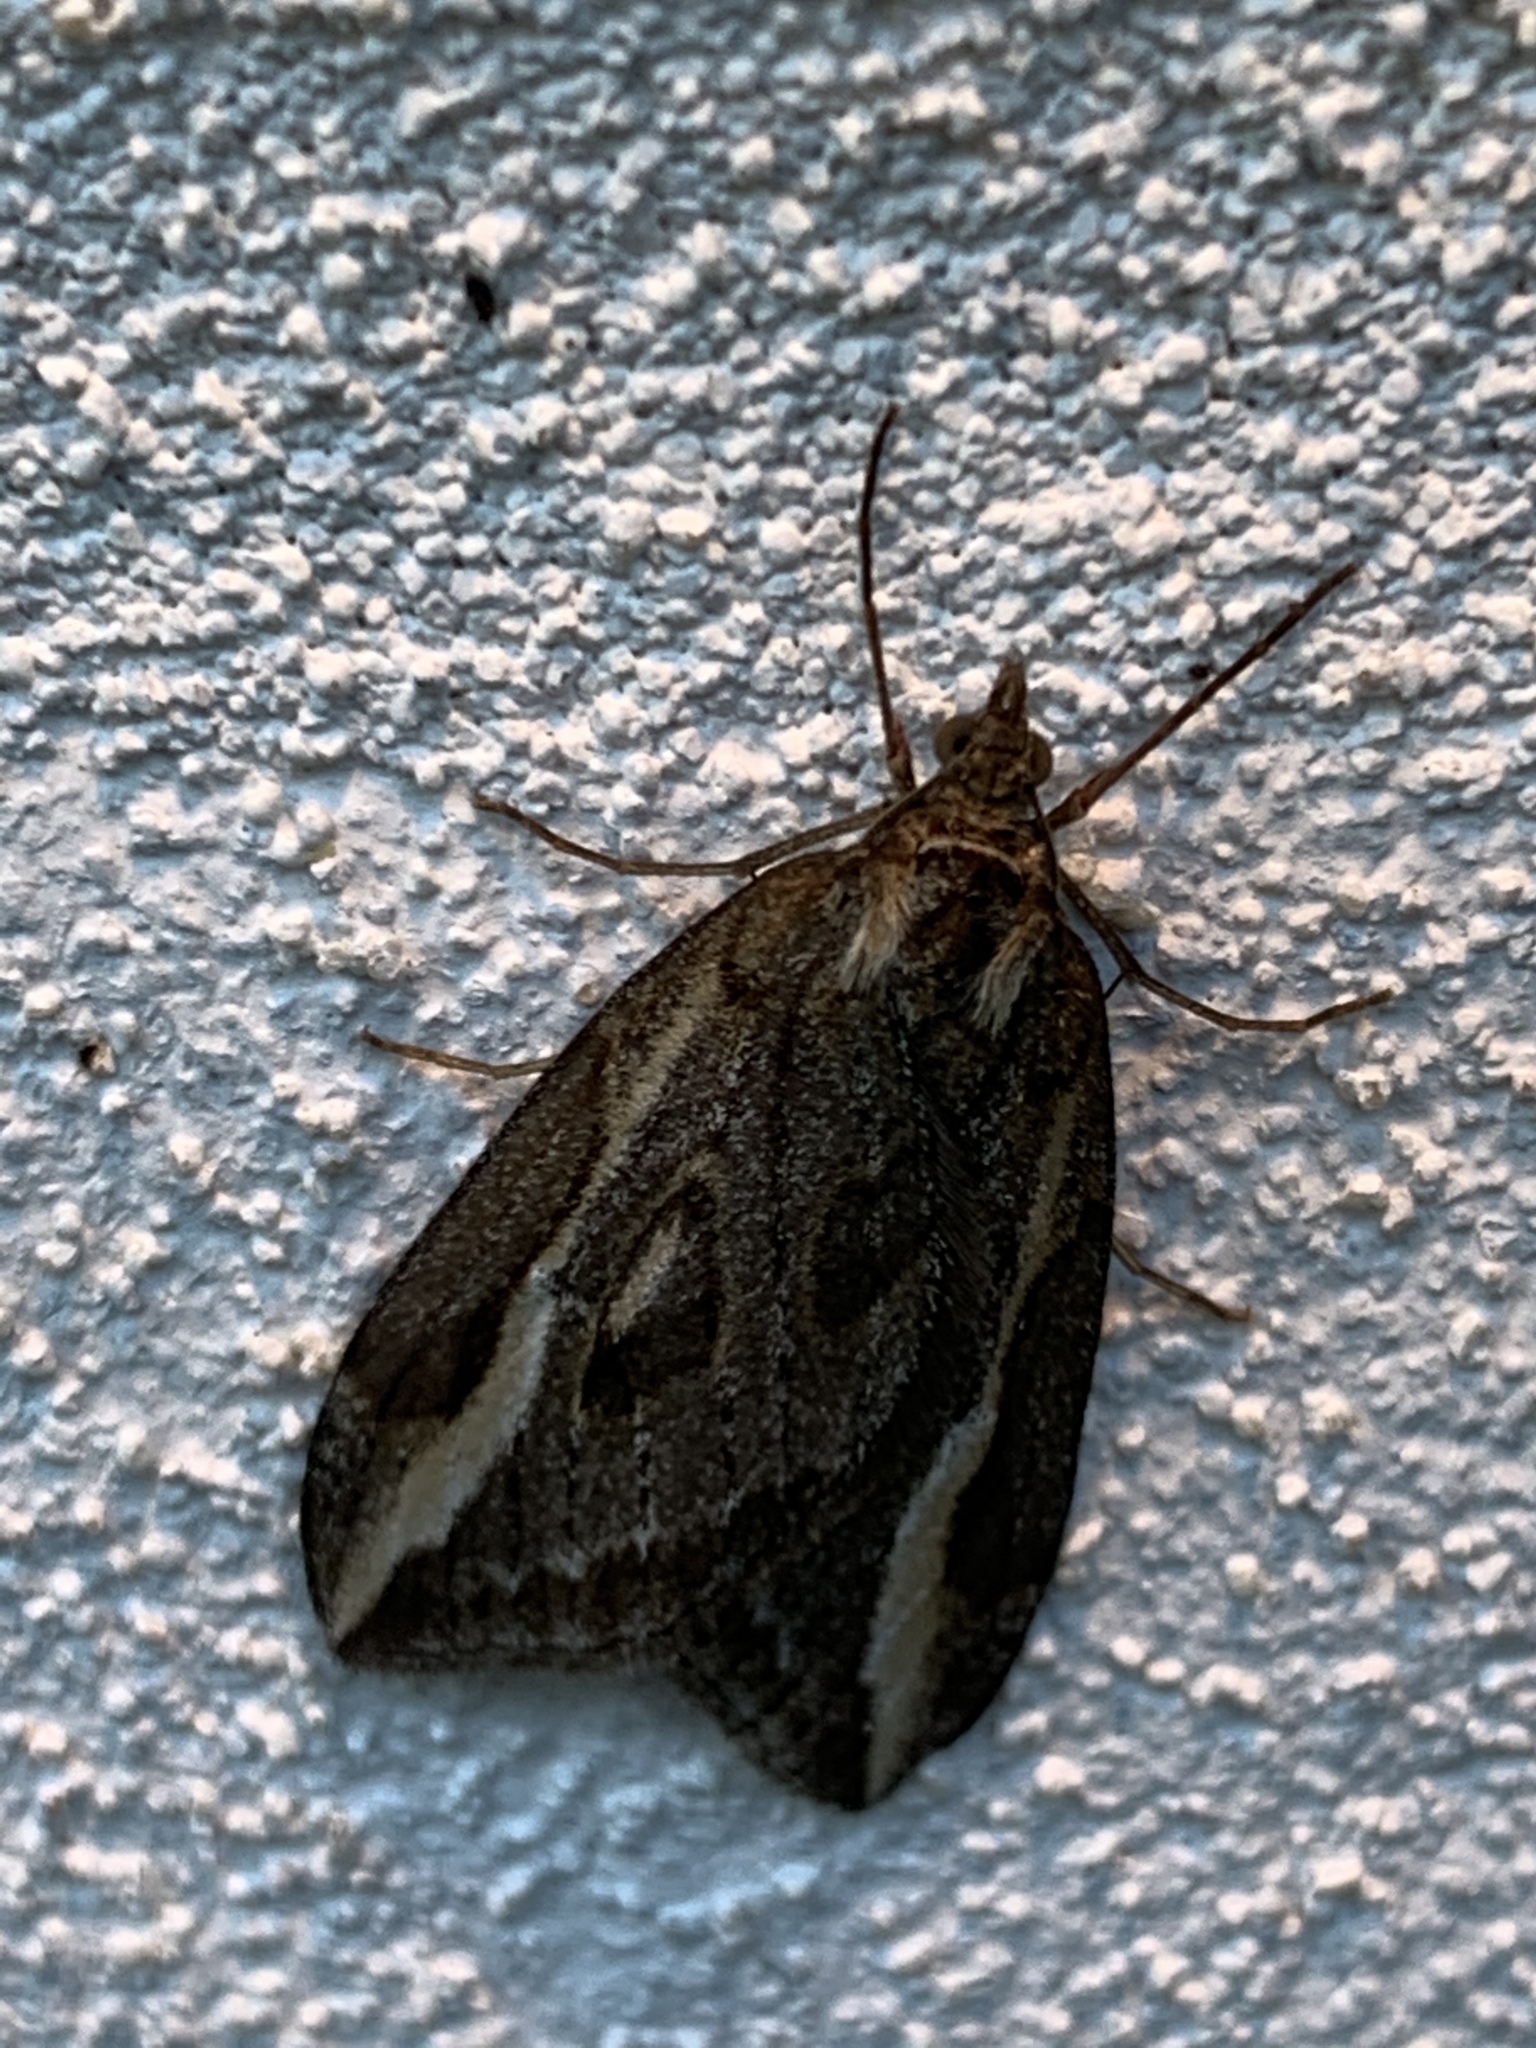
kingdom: Animalia
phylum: Arthropoda
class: Insecta
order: Lepidoptera
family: Geometridae
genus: Chesias
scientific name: Chesias legatella
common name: Streak
